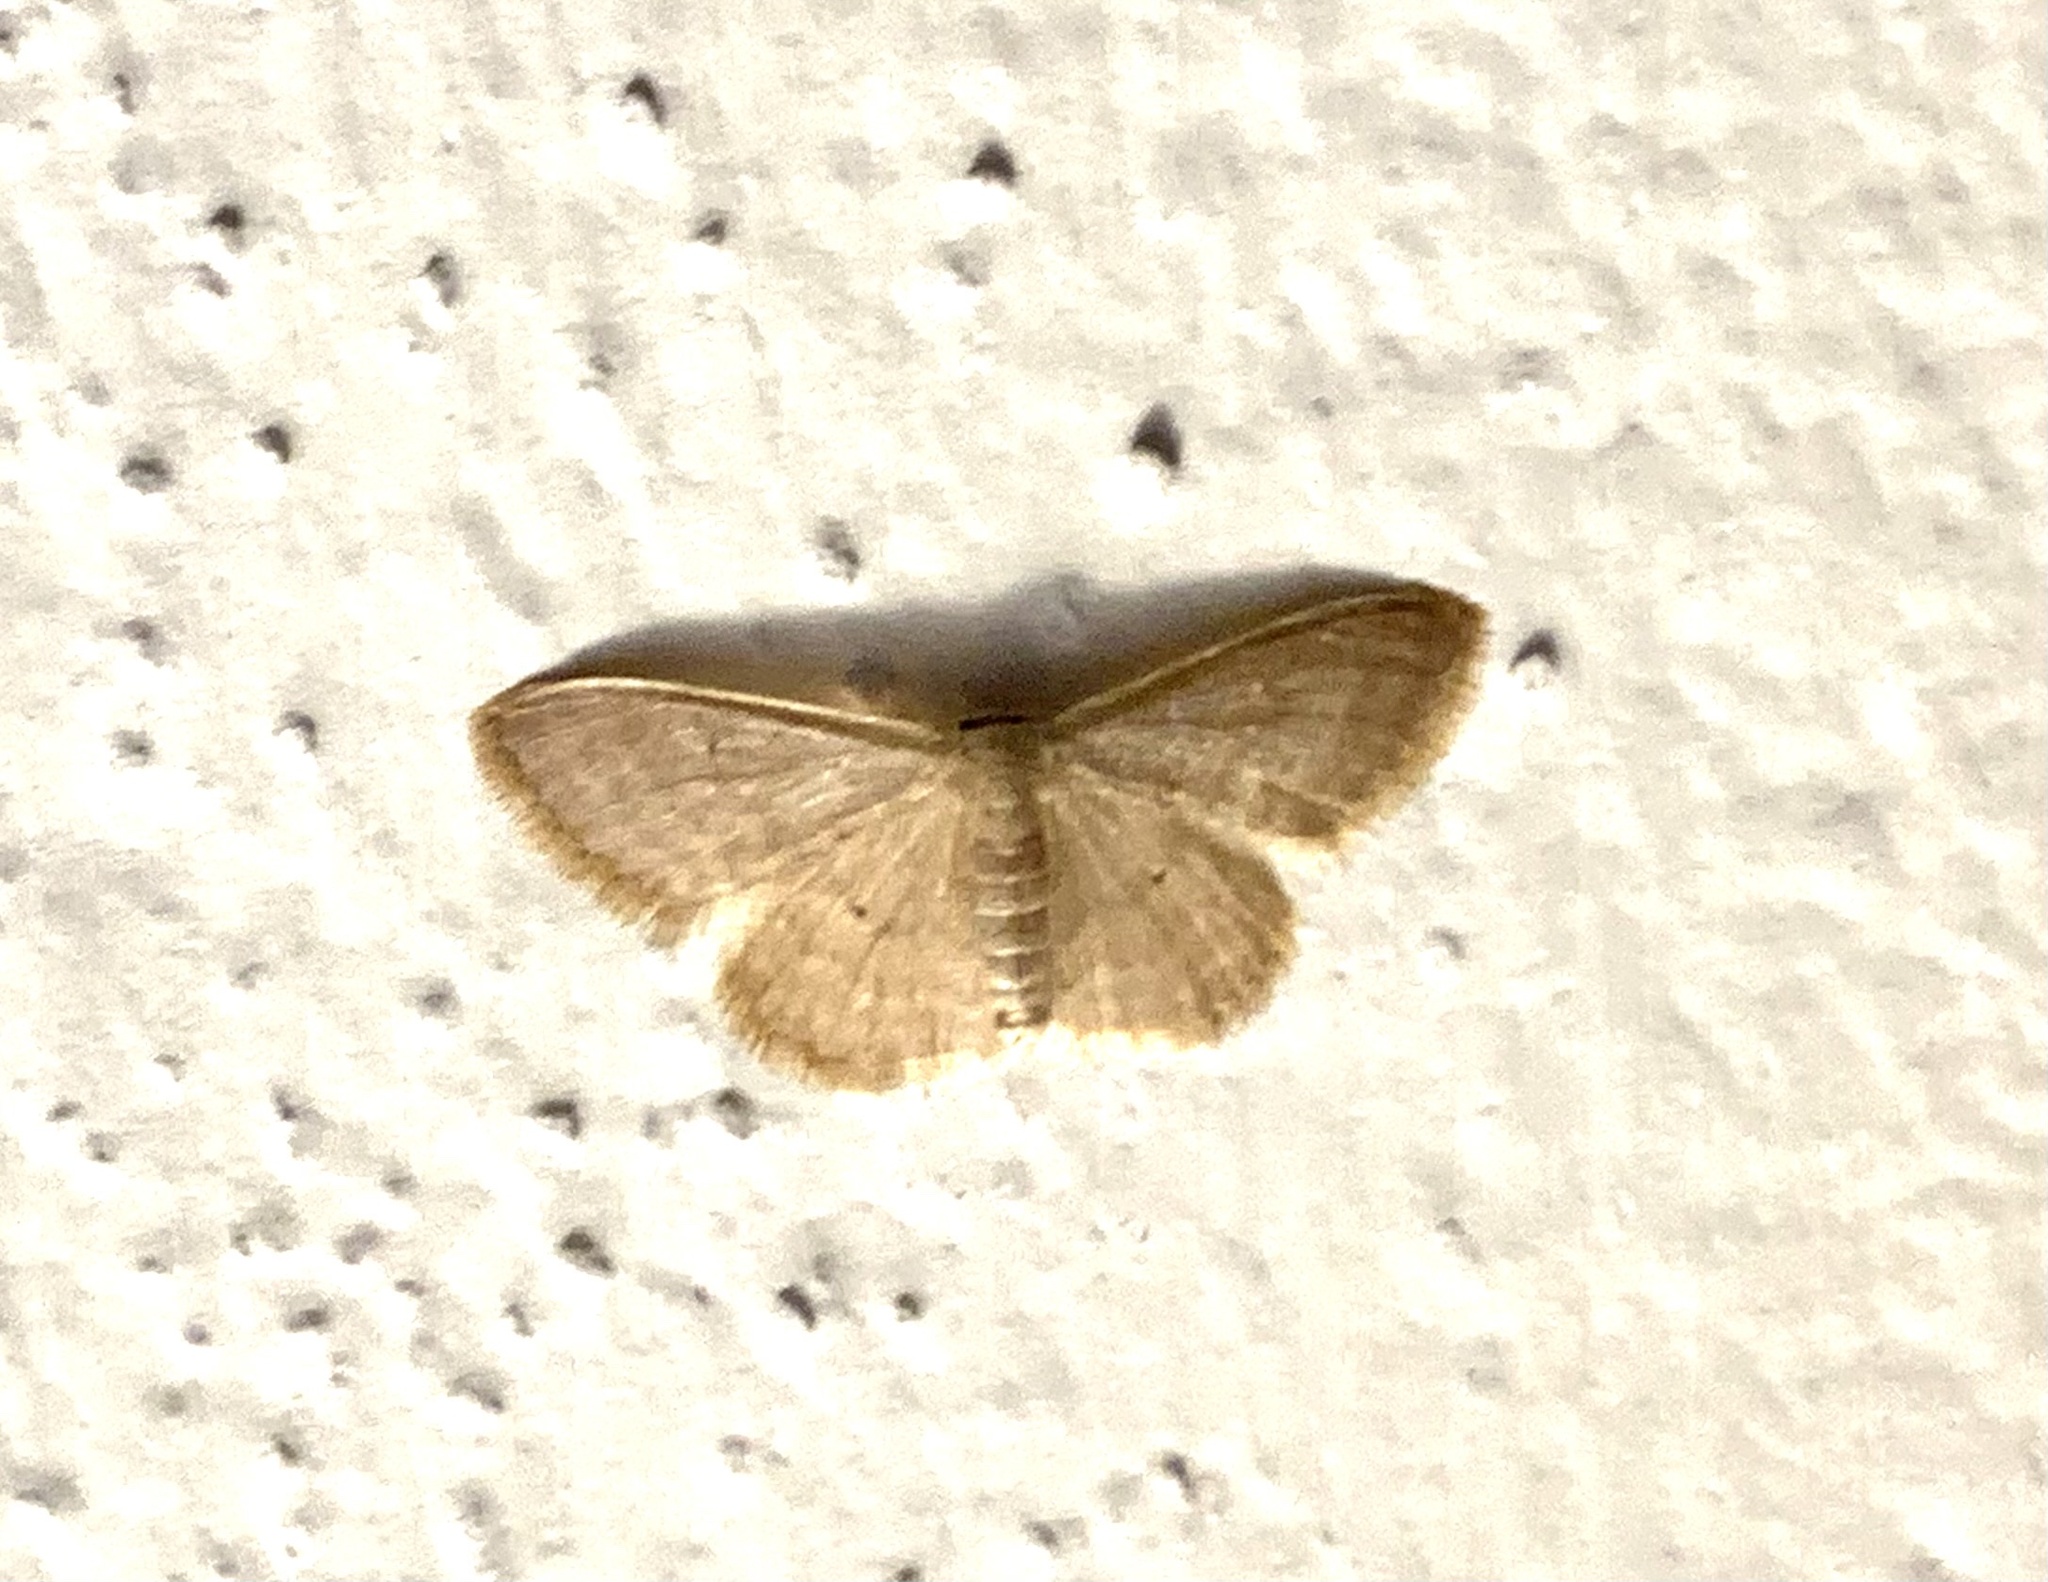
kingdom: Animalia
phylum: Arthropoda
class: Insecta
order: Lepidoptera
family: Geometridae
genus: Idaea
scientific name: Idaea distinctaria
